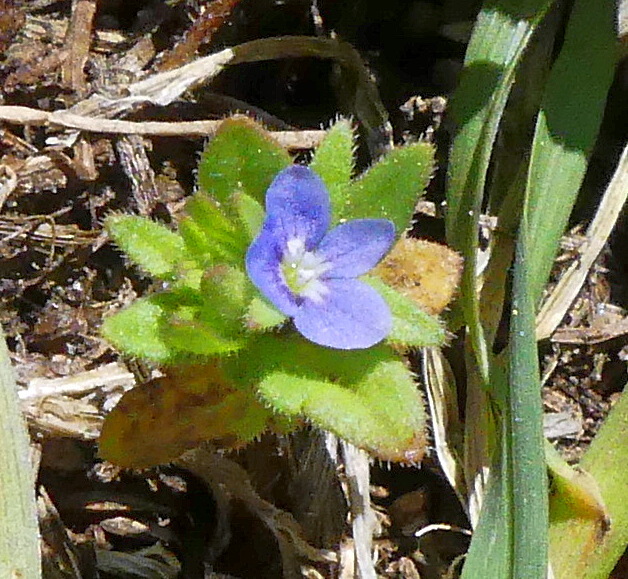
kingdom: Plantae
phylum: Tracheophyta
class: Magnoliopsida
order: Lamiales
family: Plantaginaceae
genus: Veronica
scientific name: Veronica arvensis
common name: Corn speedwell
